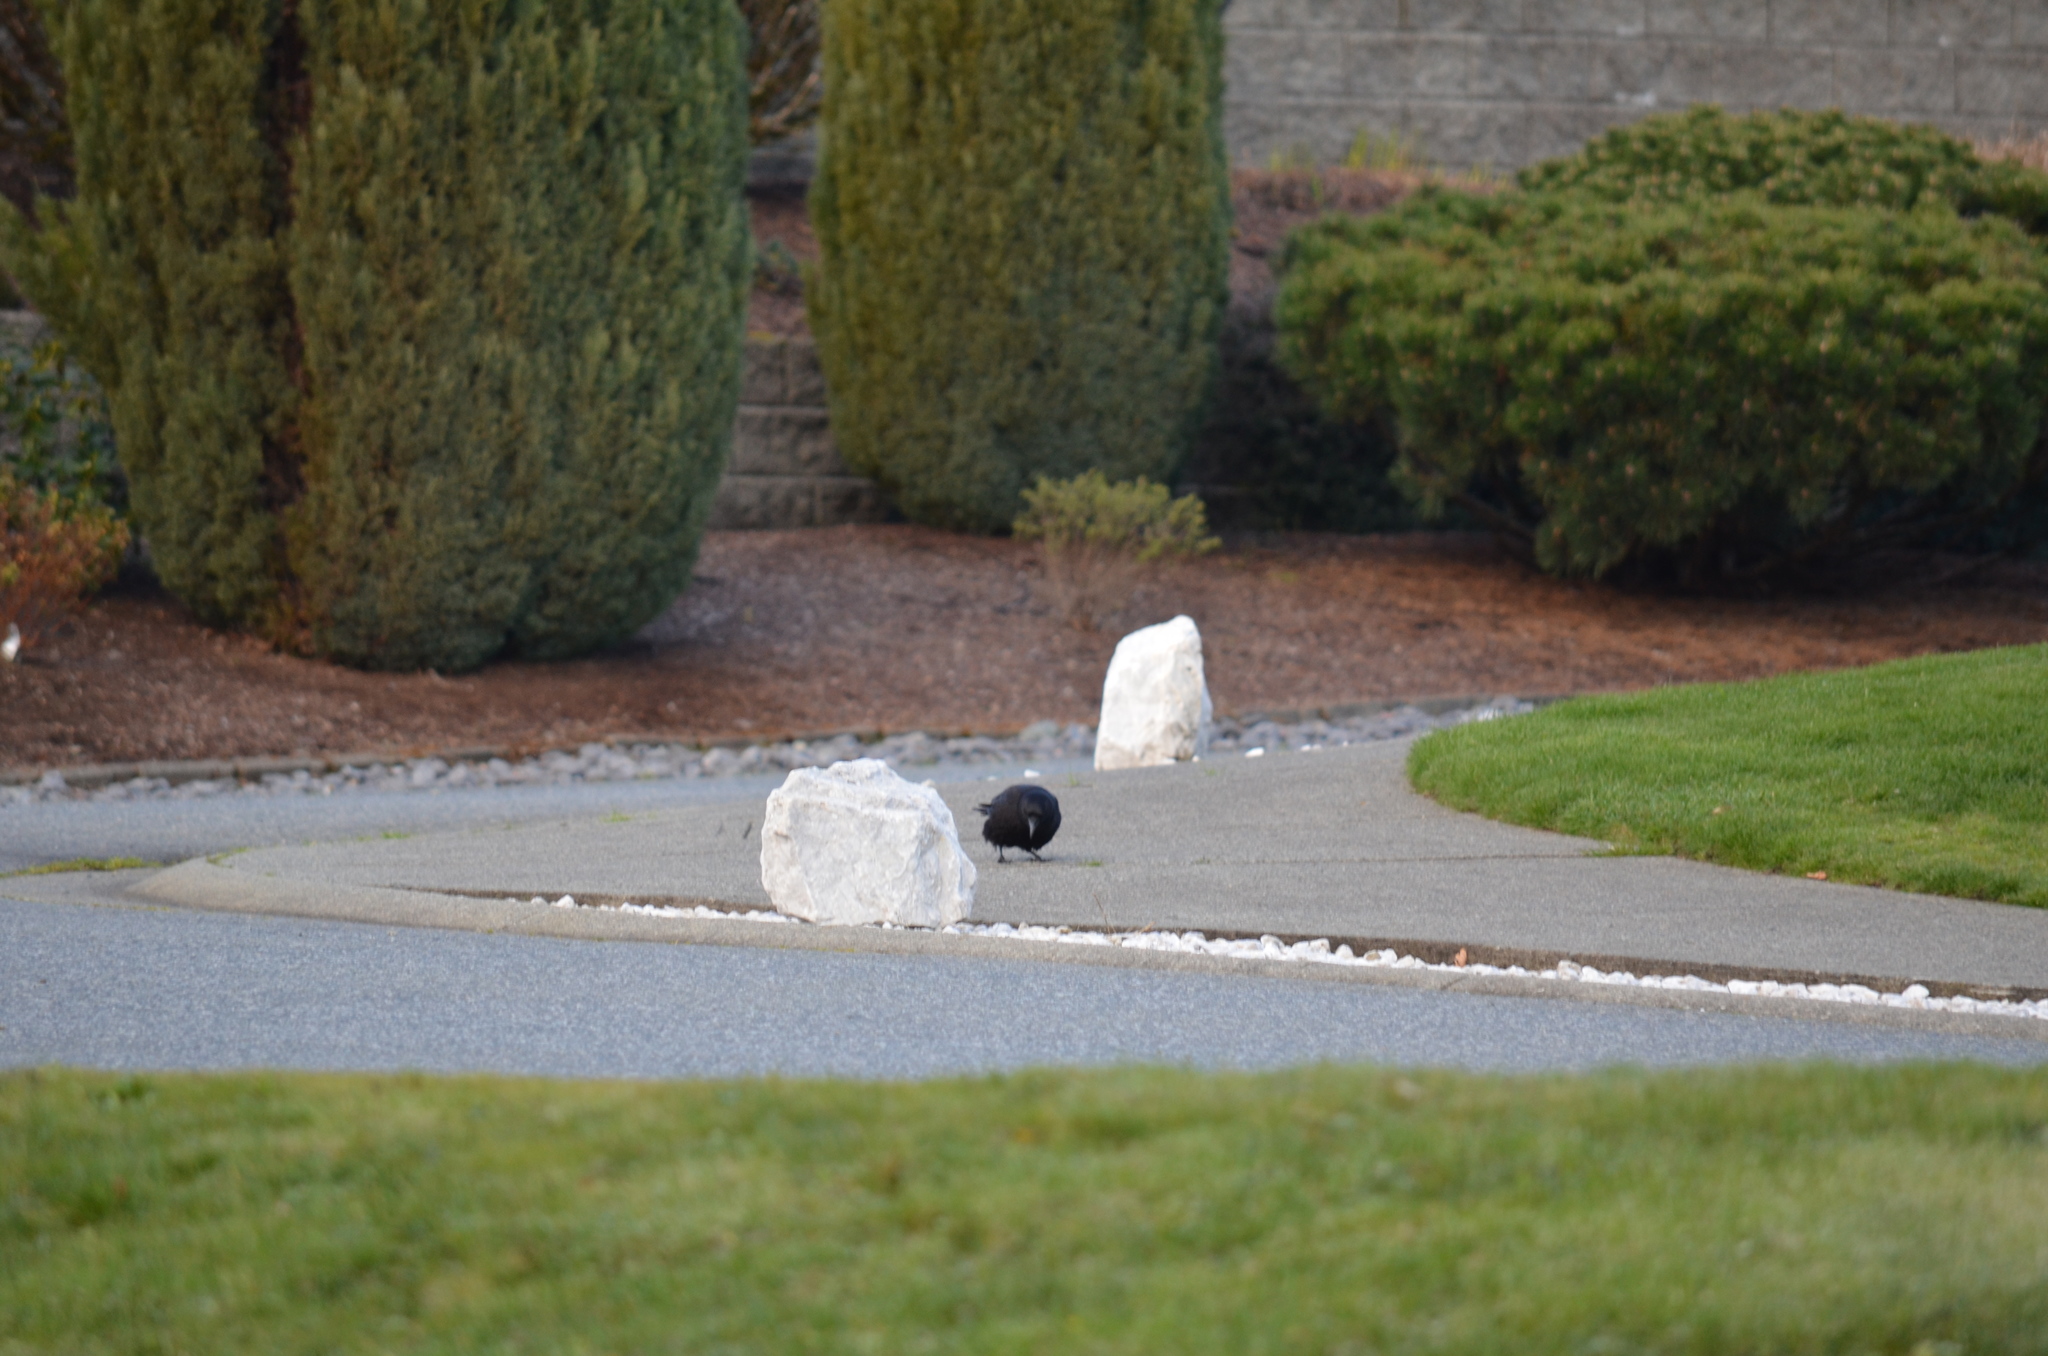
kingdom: Animalia
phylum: Chordata
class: Aves
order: Passeriformes
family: Corvidae
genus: Corvus
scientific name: Corvus brachyrhynchos
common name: American crow
